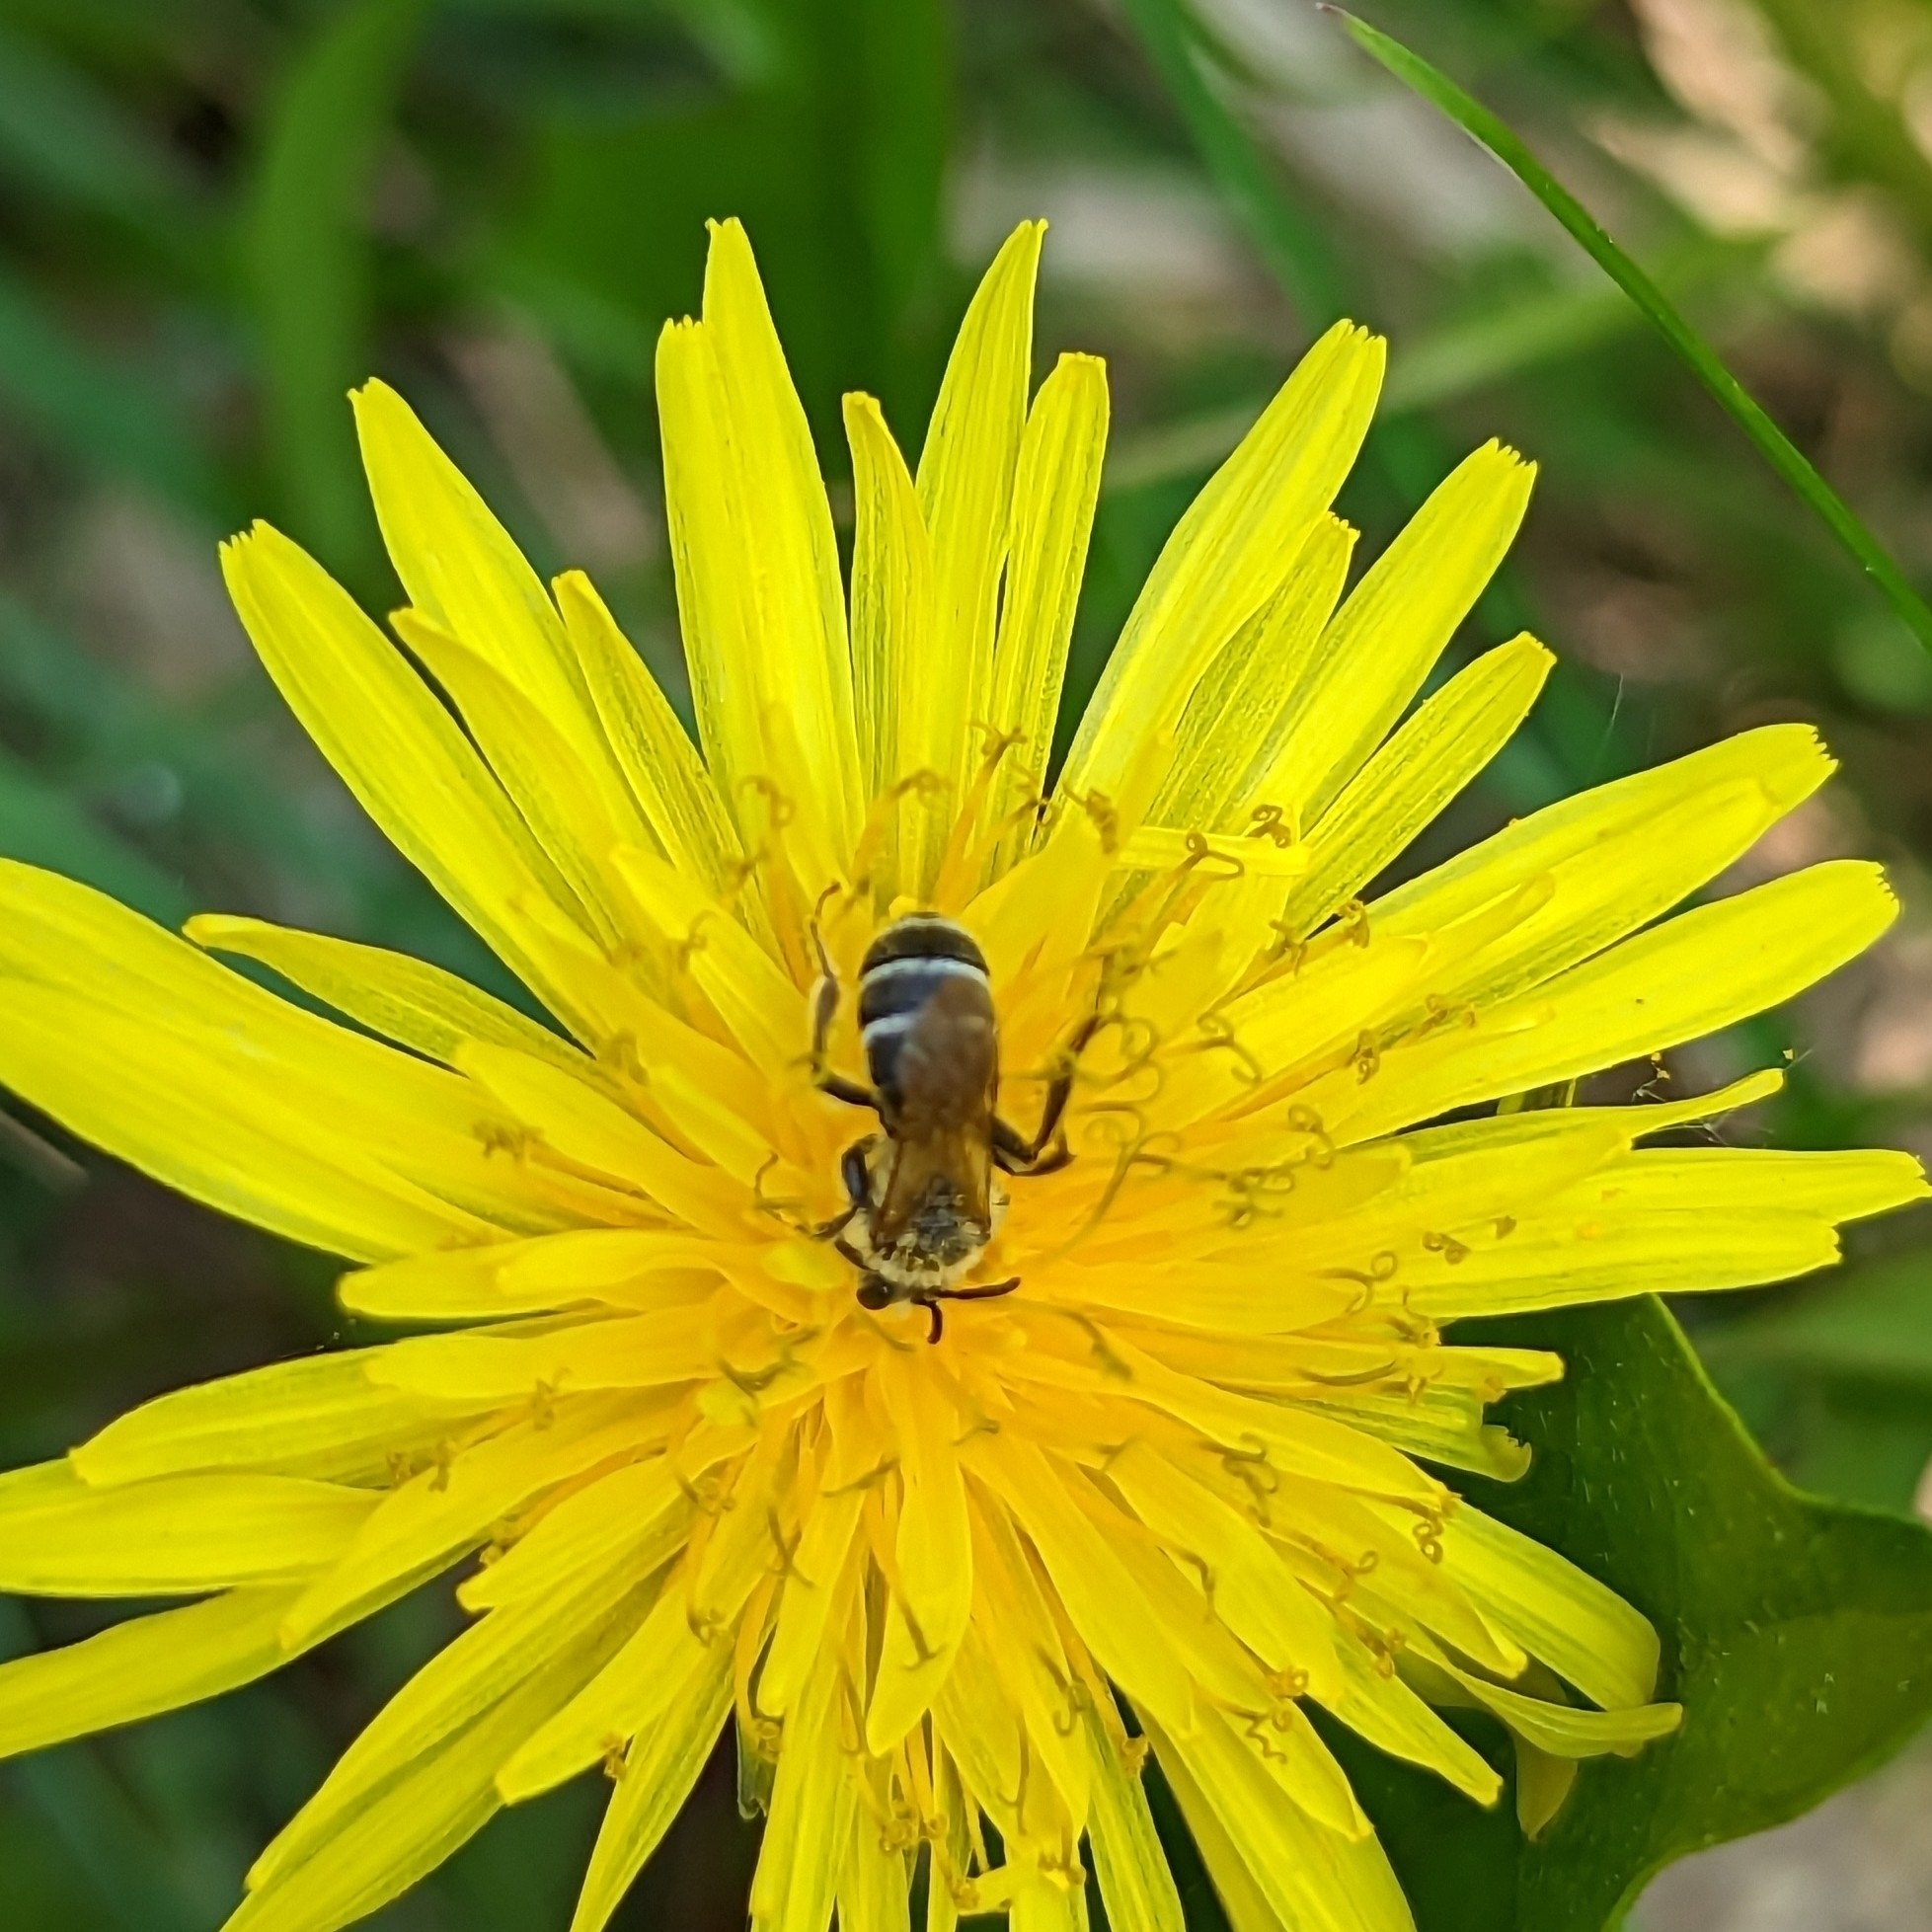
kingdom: Animalia
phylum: Arthropoda
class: Insecta
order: Hymenoptera
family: Andrenidae
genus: Andrena
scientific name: Andrena nasonii
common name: Nason's mining bee
